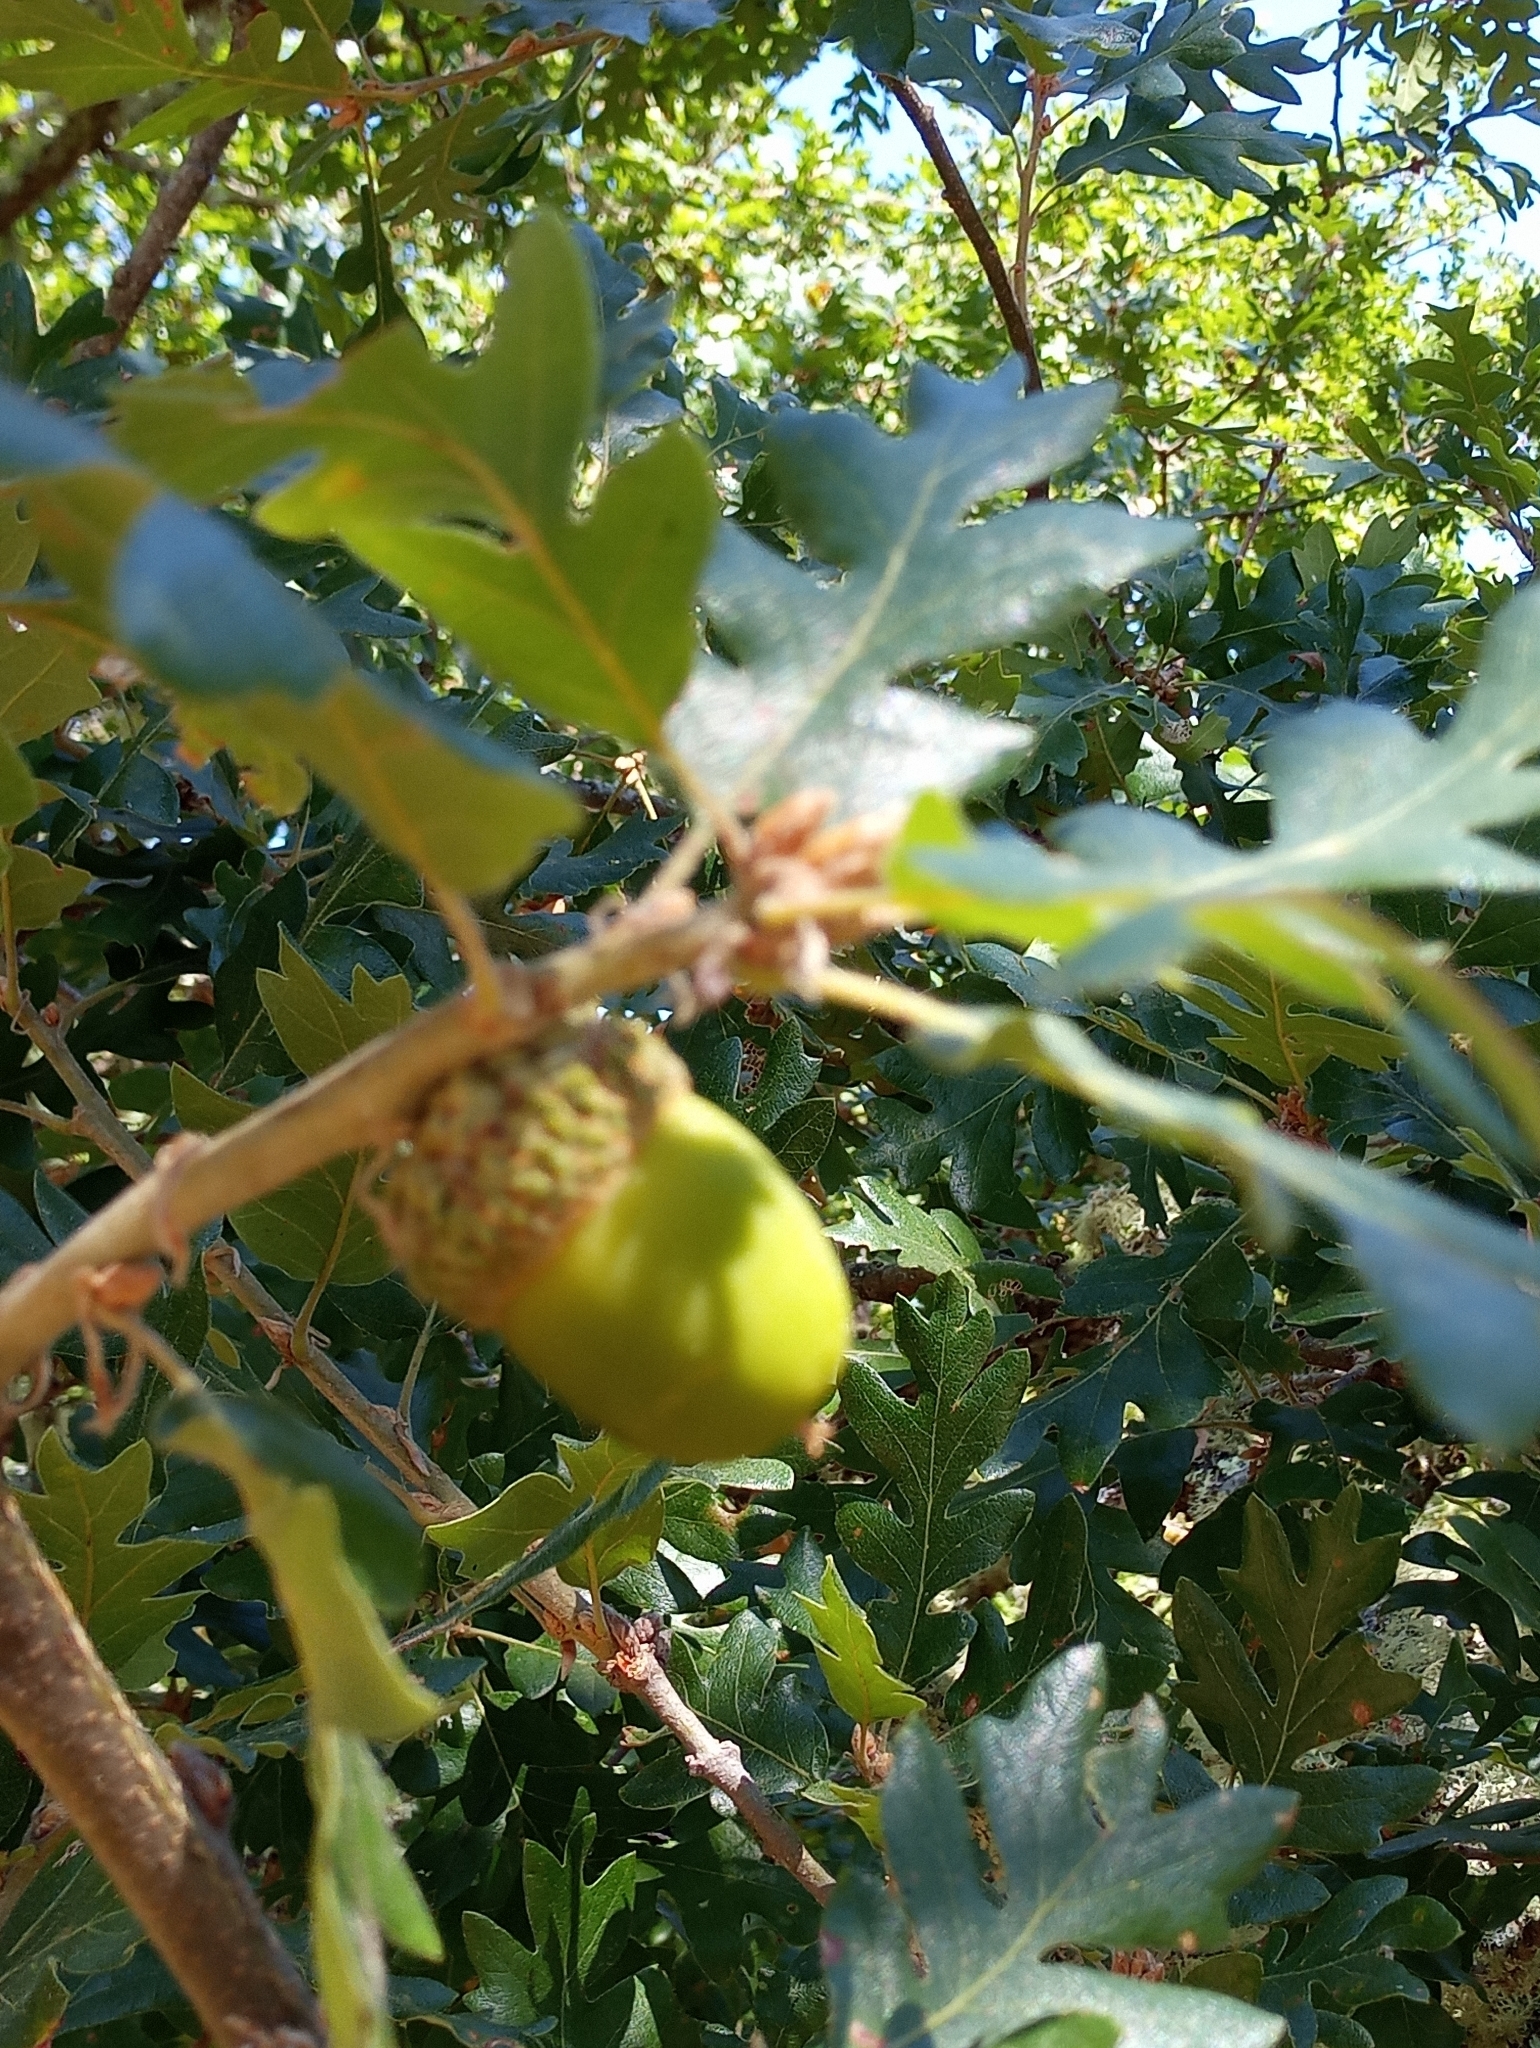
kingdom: Plantae
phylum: Tracheophyta
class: Magnoliopsida
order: Fagales
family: Fagaceae
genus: Quercus
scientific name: Quercus lobata
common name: Valley oak
